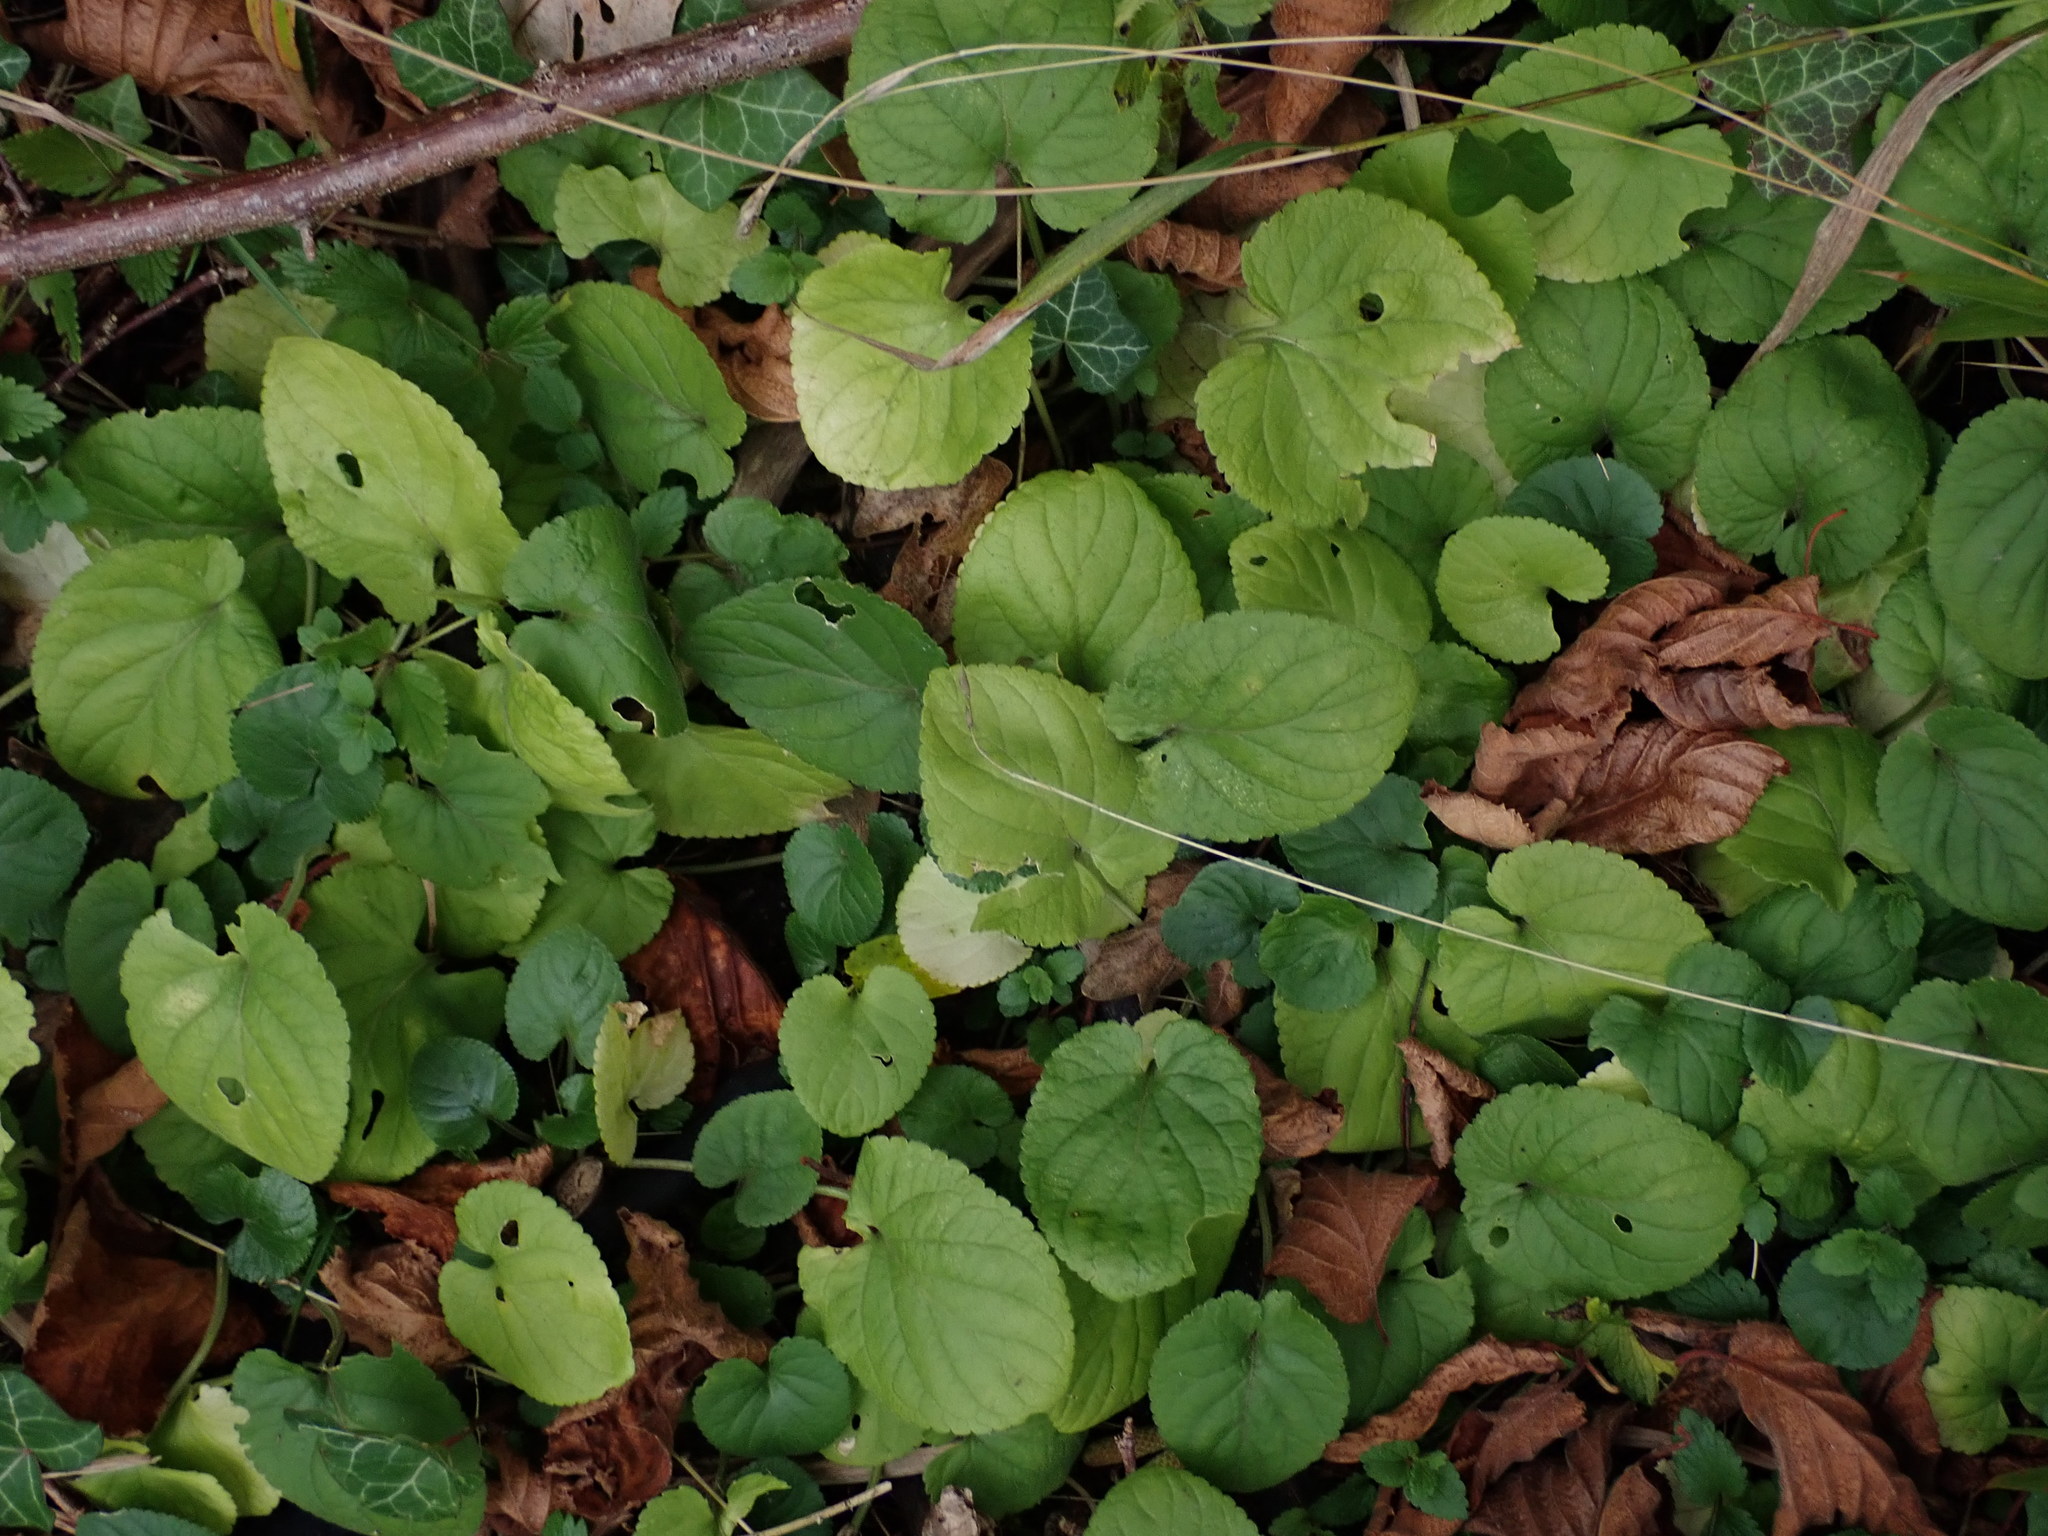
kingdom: Plantae
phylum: Tracheophyta
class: Magnoliopsida
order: Malpighiales
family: Violaceae
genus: Viola
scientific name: Viola odorata
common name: Sweet violet
